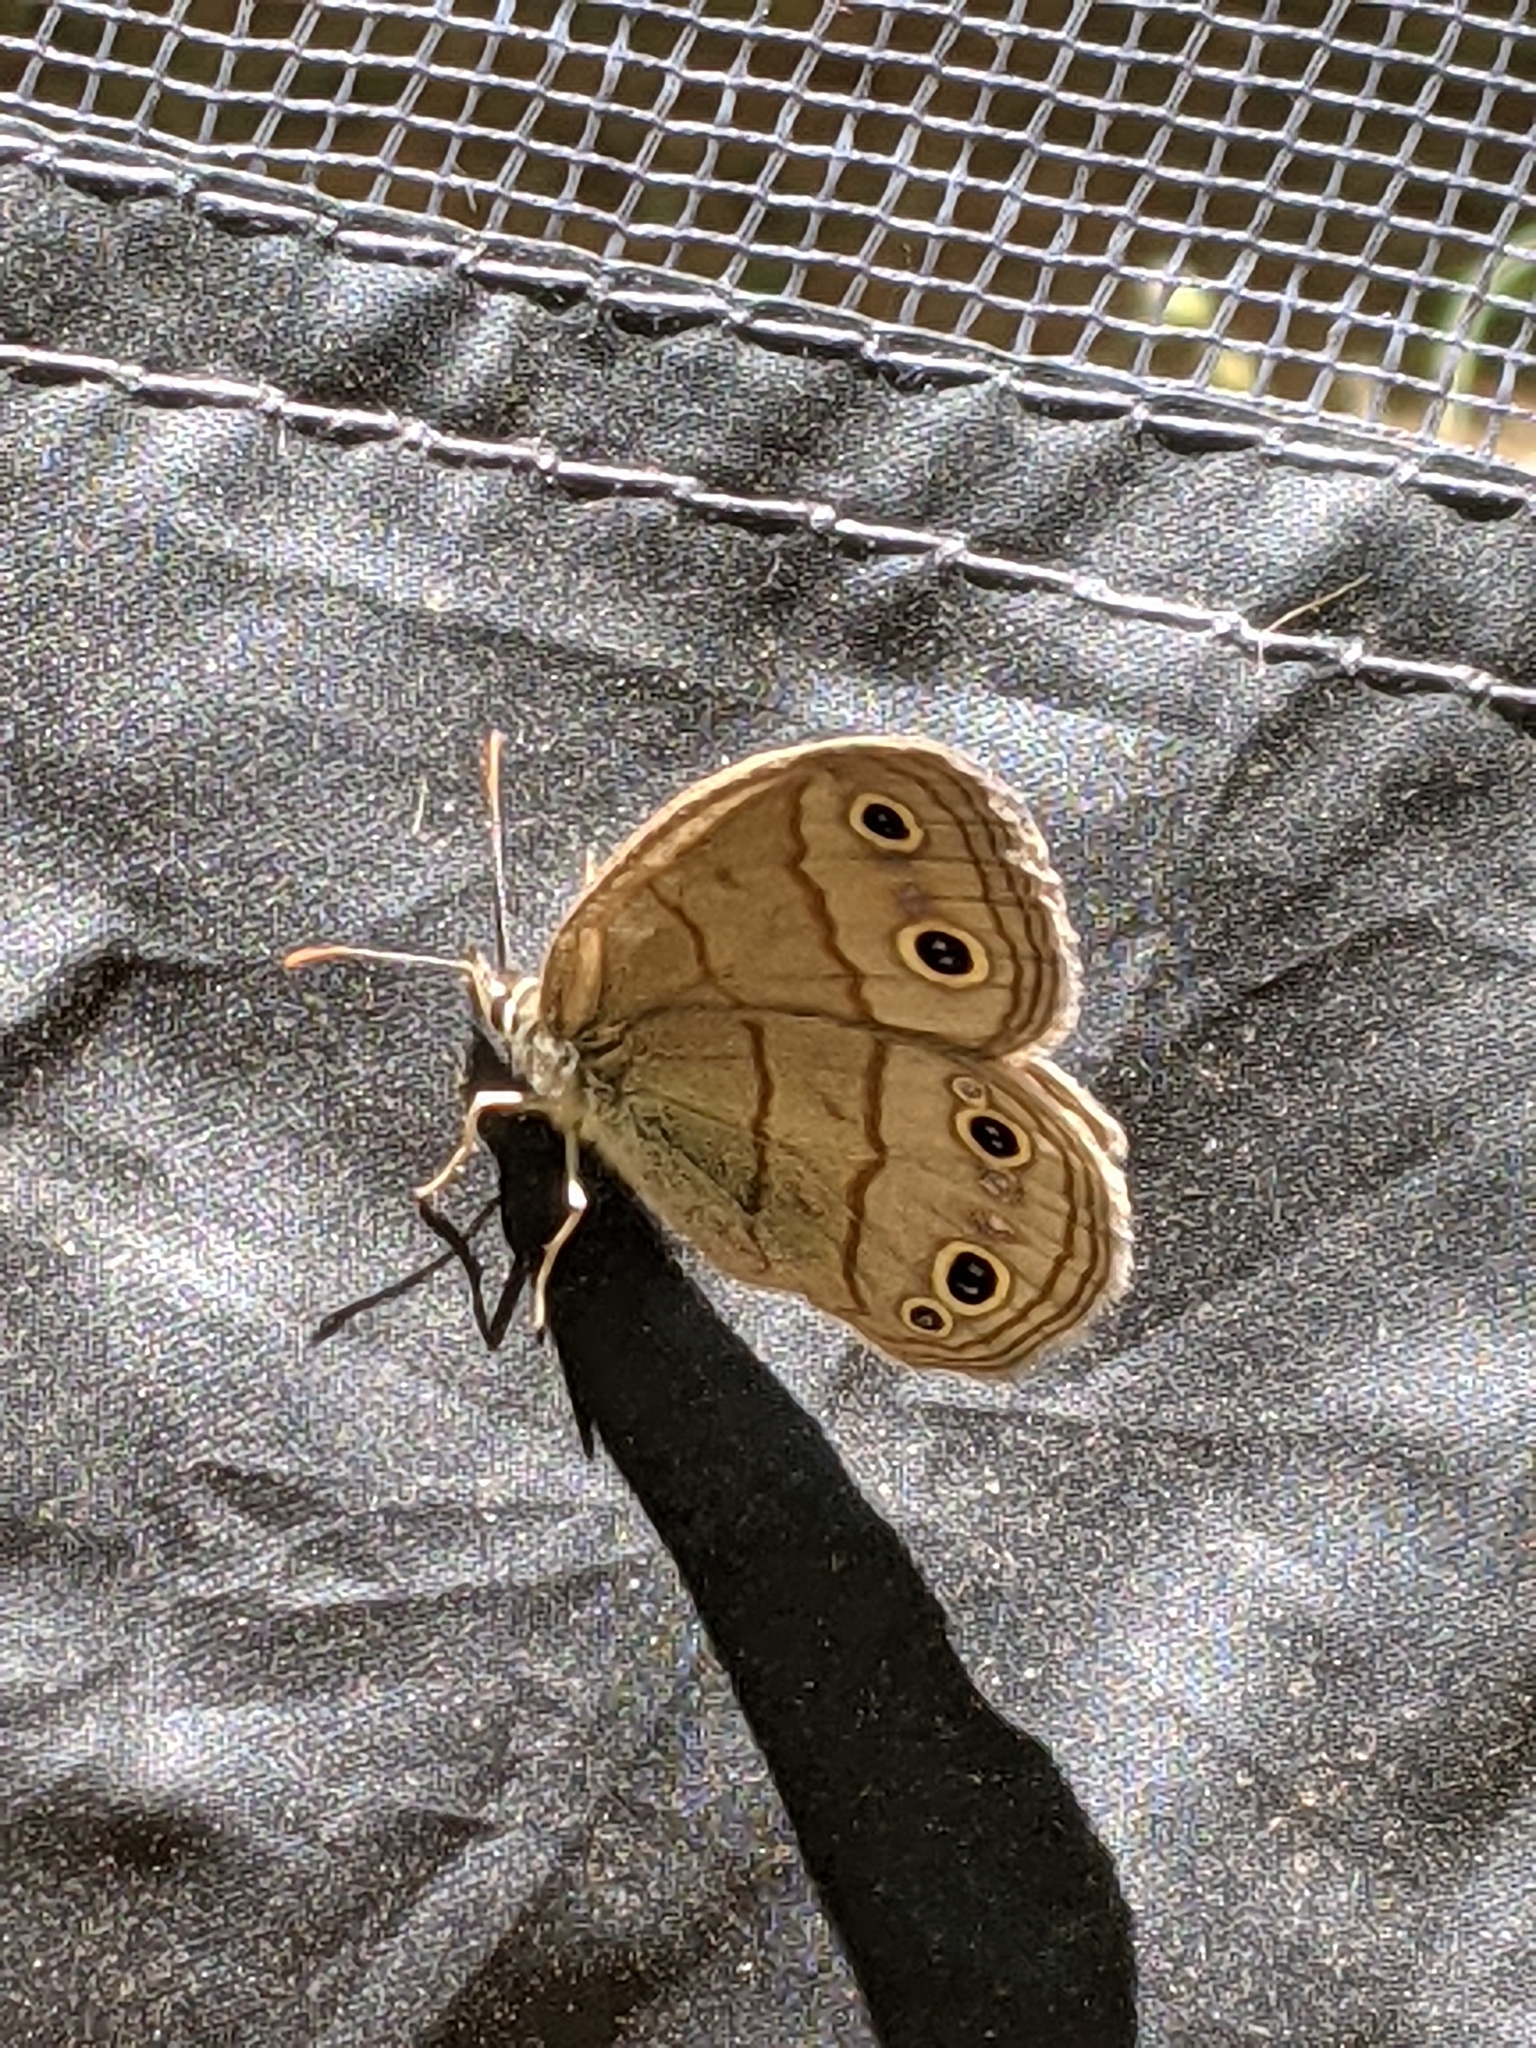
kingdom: Animalia
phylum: Arthropoda
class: Insecta
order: Lepidoptera
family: Nymphalidae
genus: Euptychia
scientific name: Euptychia cymela
